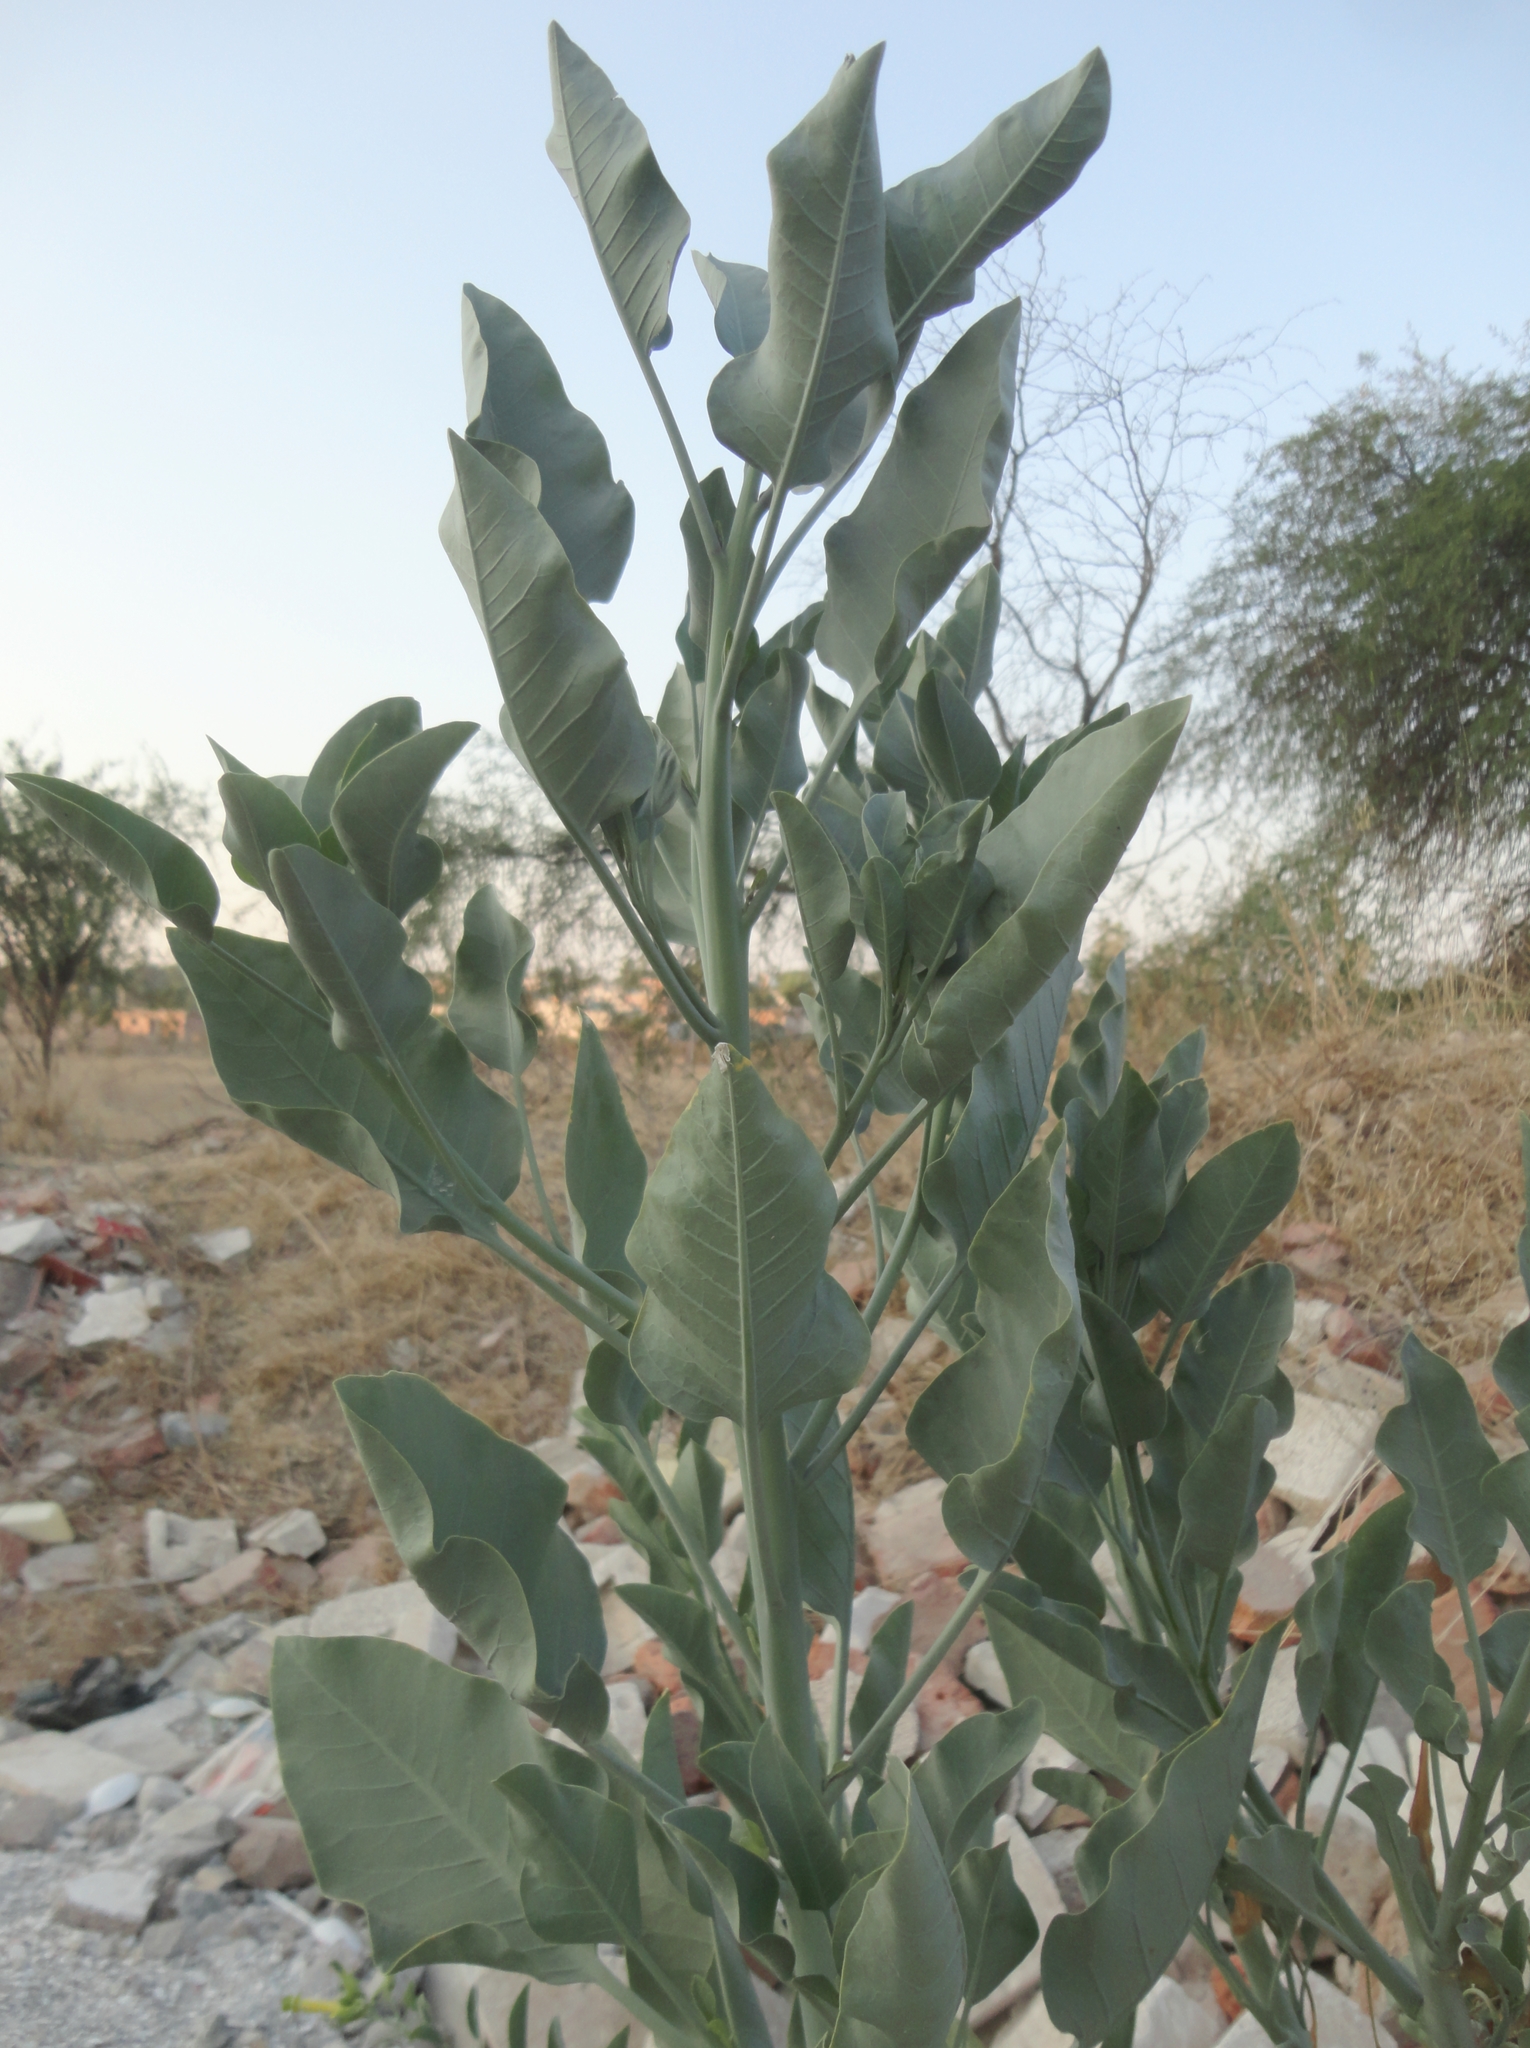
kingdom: Plantae
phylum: Tracheophyta
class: Magnoliopsida
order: Solanales
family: Solanaceae
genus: Nicotiana
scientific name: Nicotiana glauca
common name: Tree tobacco
